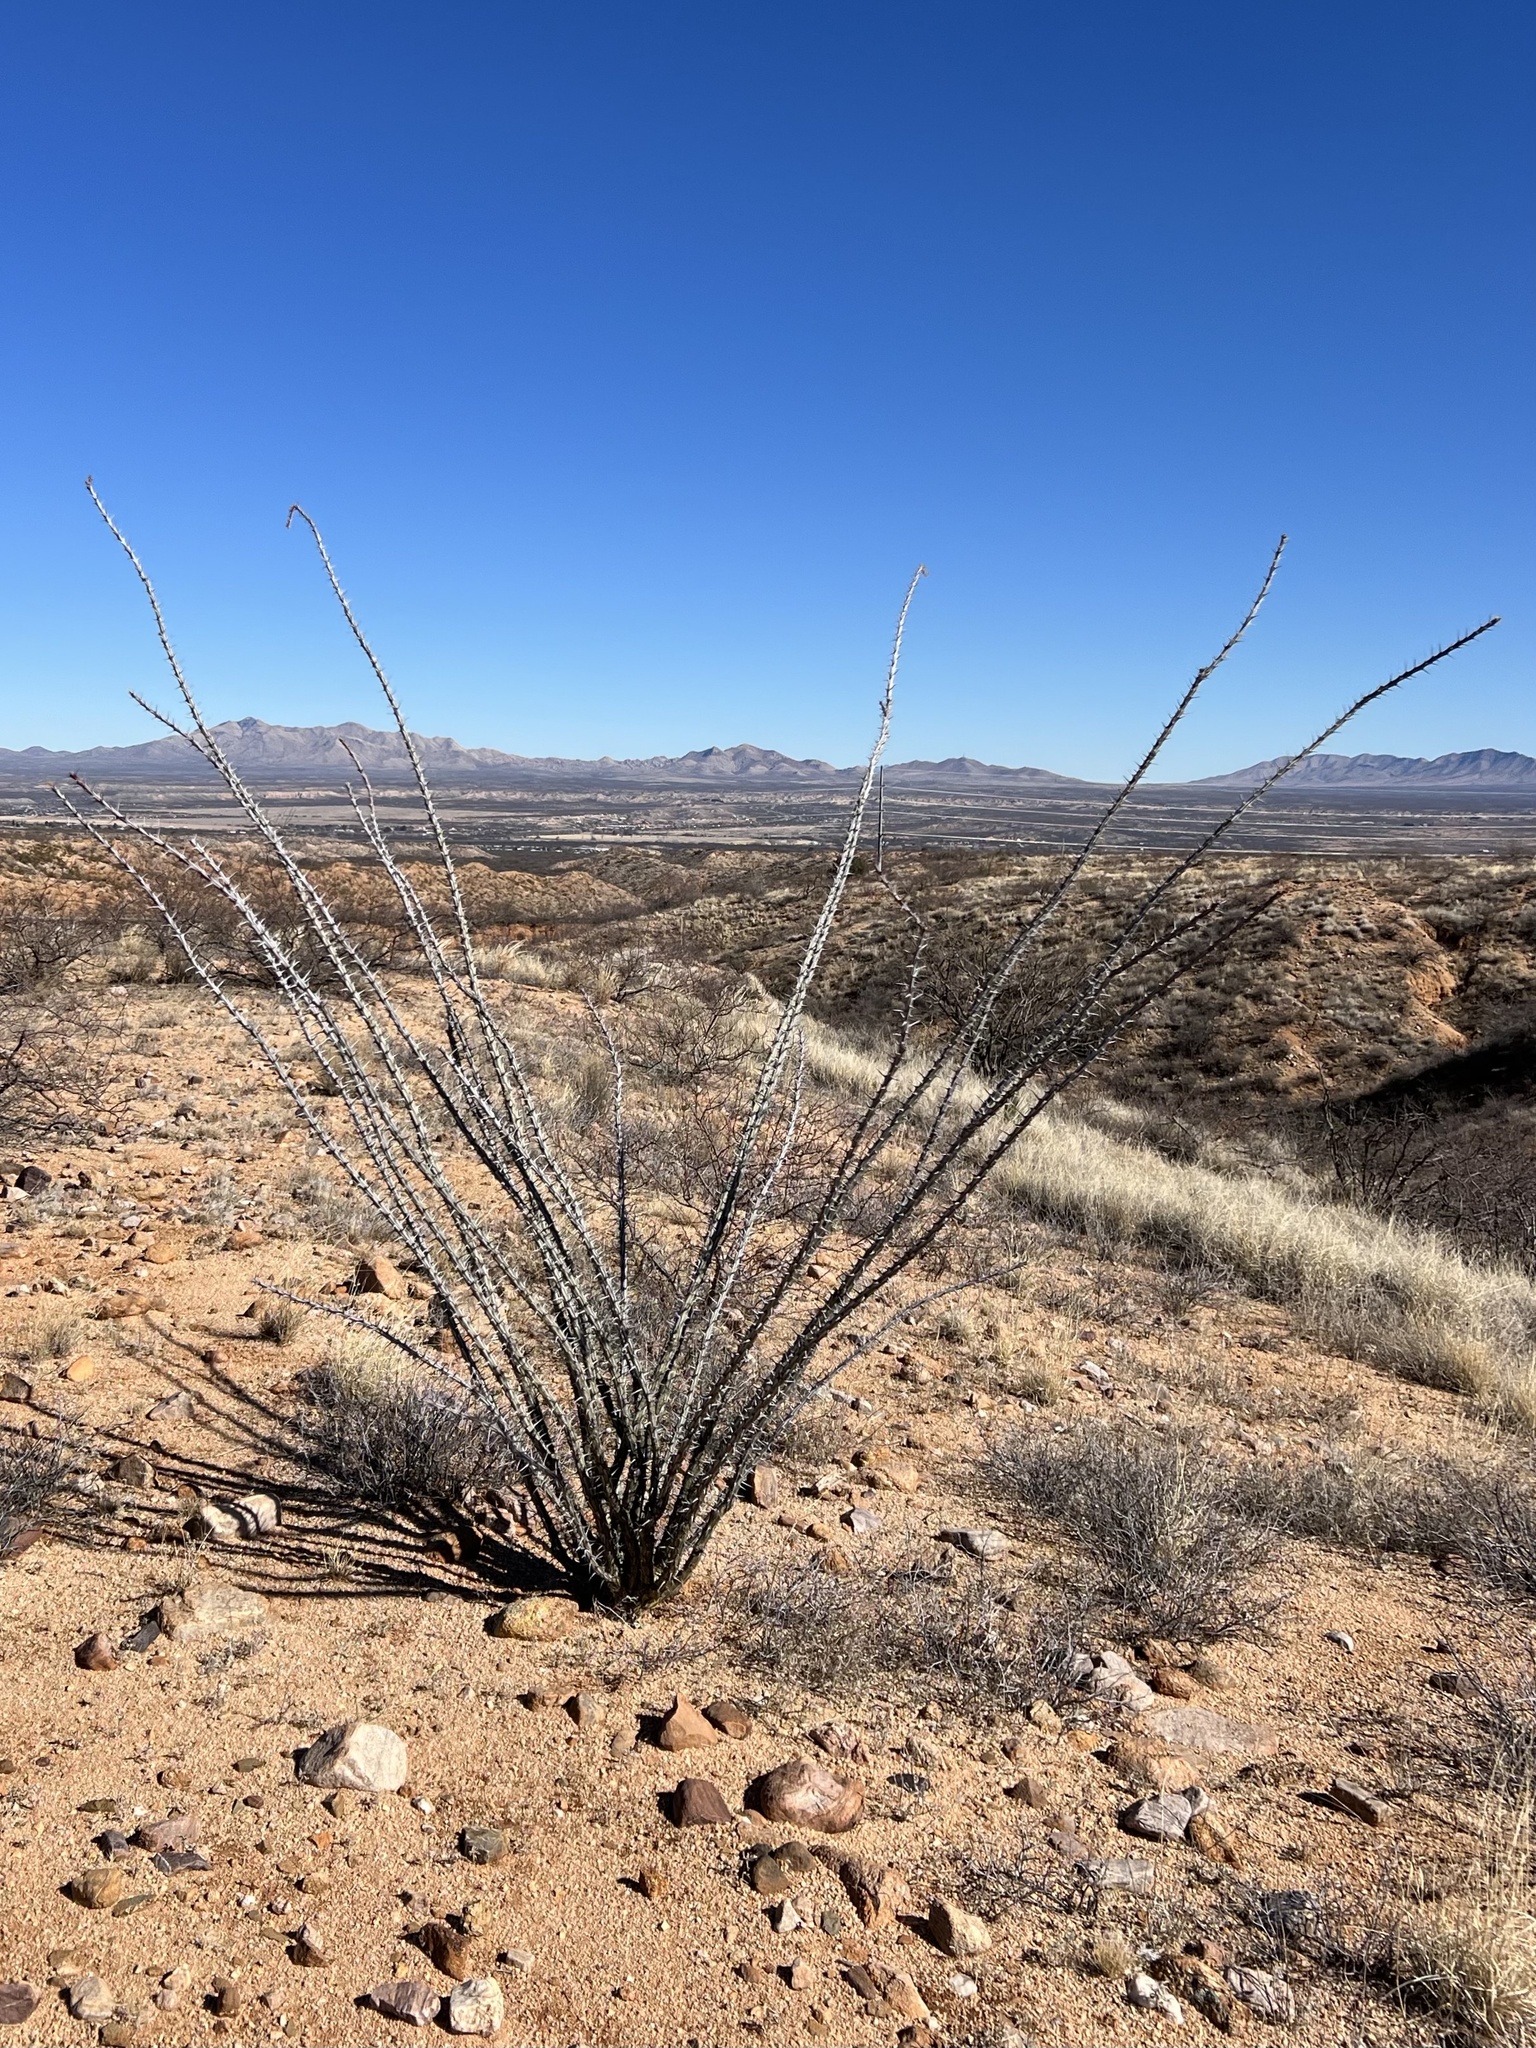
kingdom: Plantae
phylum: Tracheophyta
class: Magnoliopsida
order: Ericales
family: Fouquieriaceae
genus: Fouquieria
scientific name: Fouquieria splendens
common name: Vine-cactus
